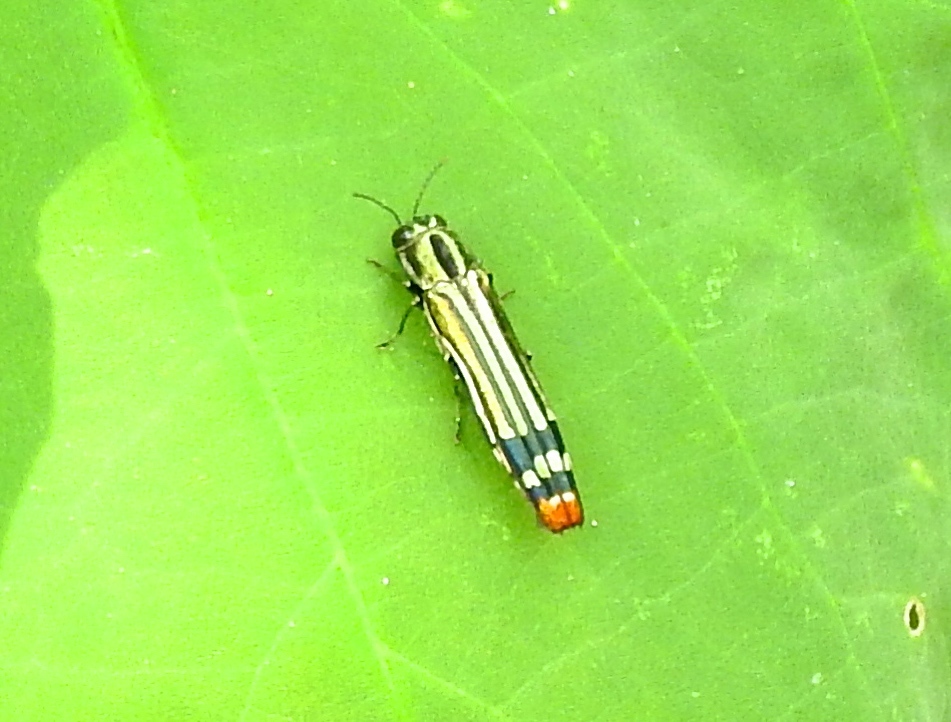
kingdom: Animalia
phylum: Arthropoda
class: Insecta
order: Coleoptera
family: Buprestidae
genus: Agrilus
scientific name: Agrilus catherinae
